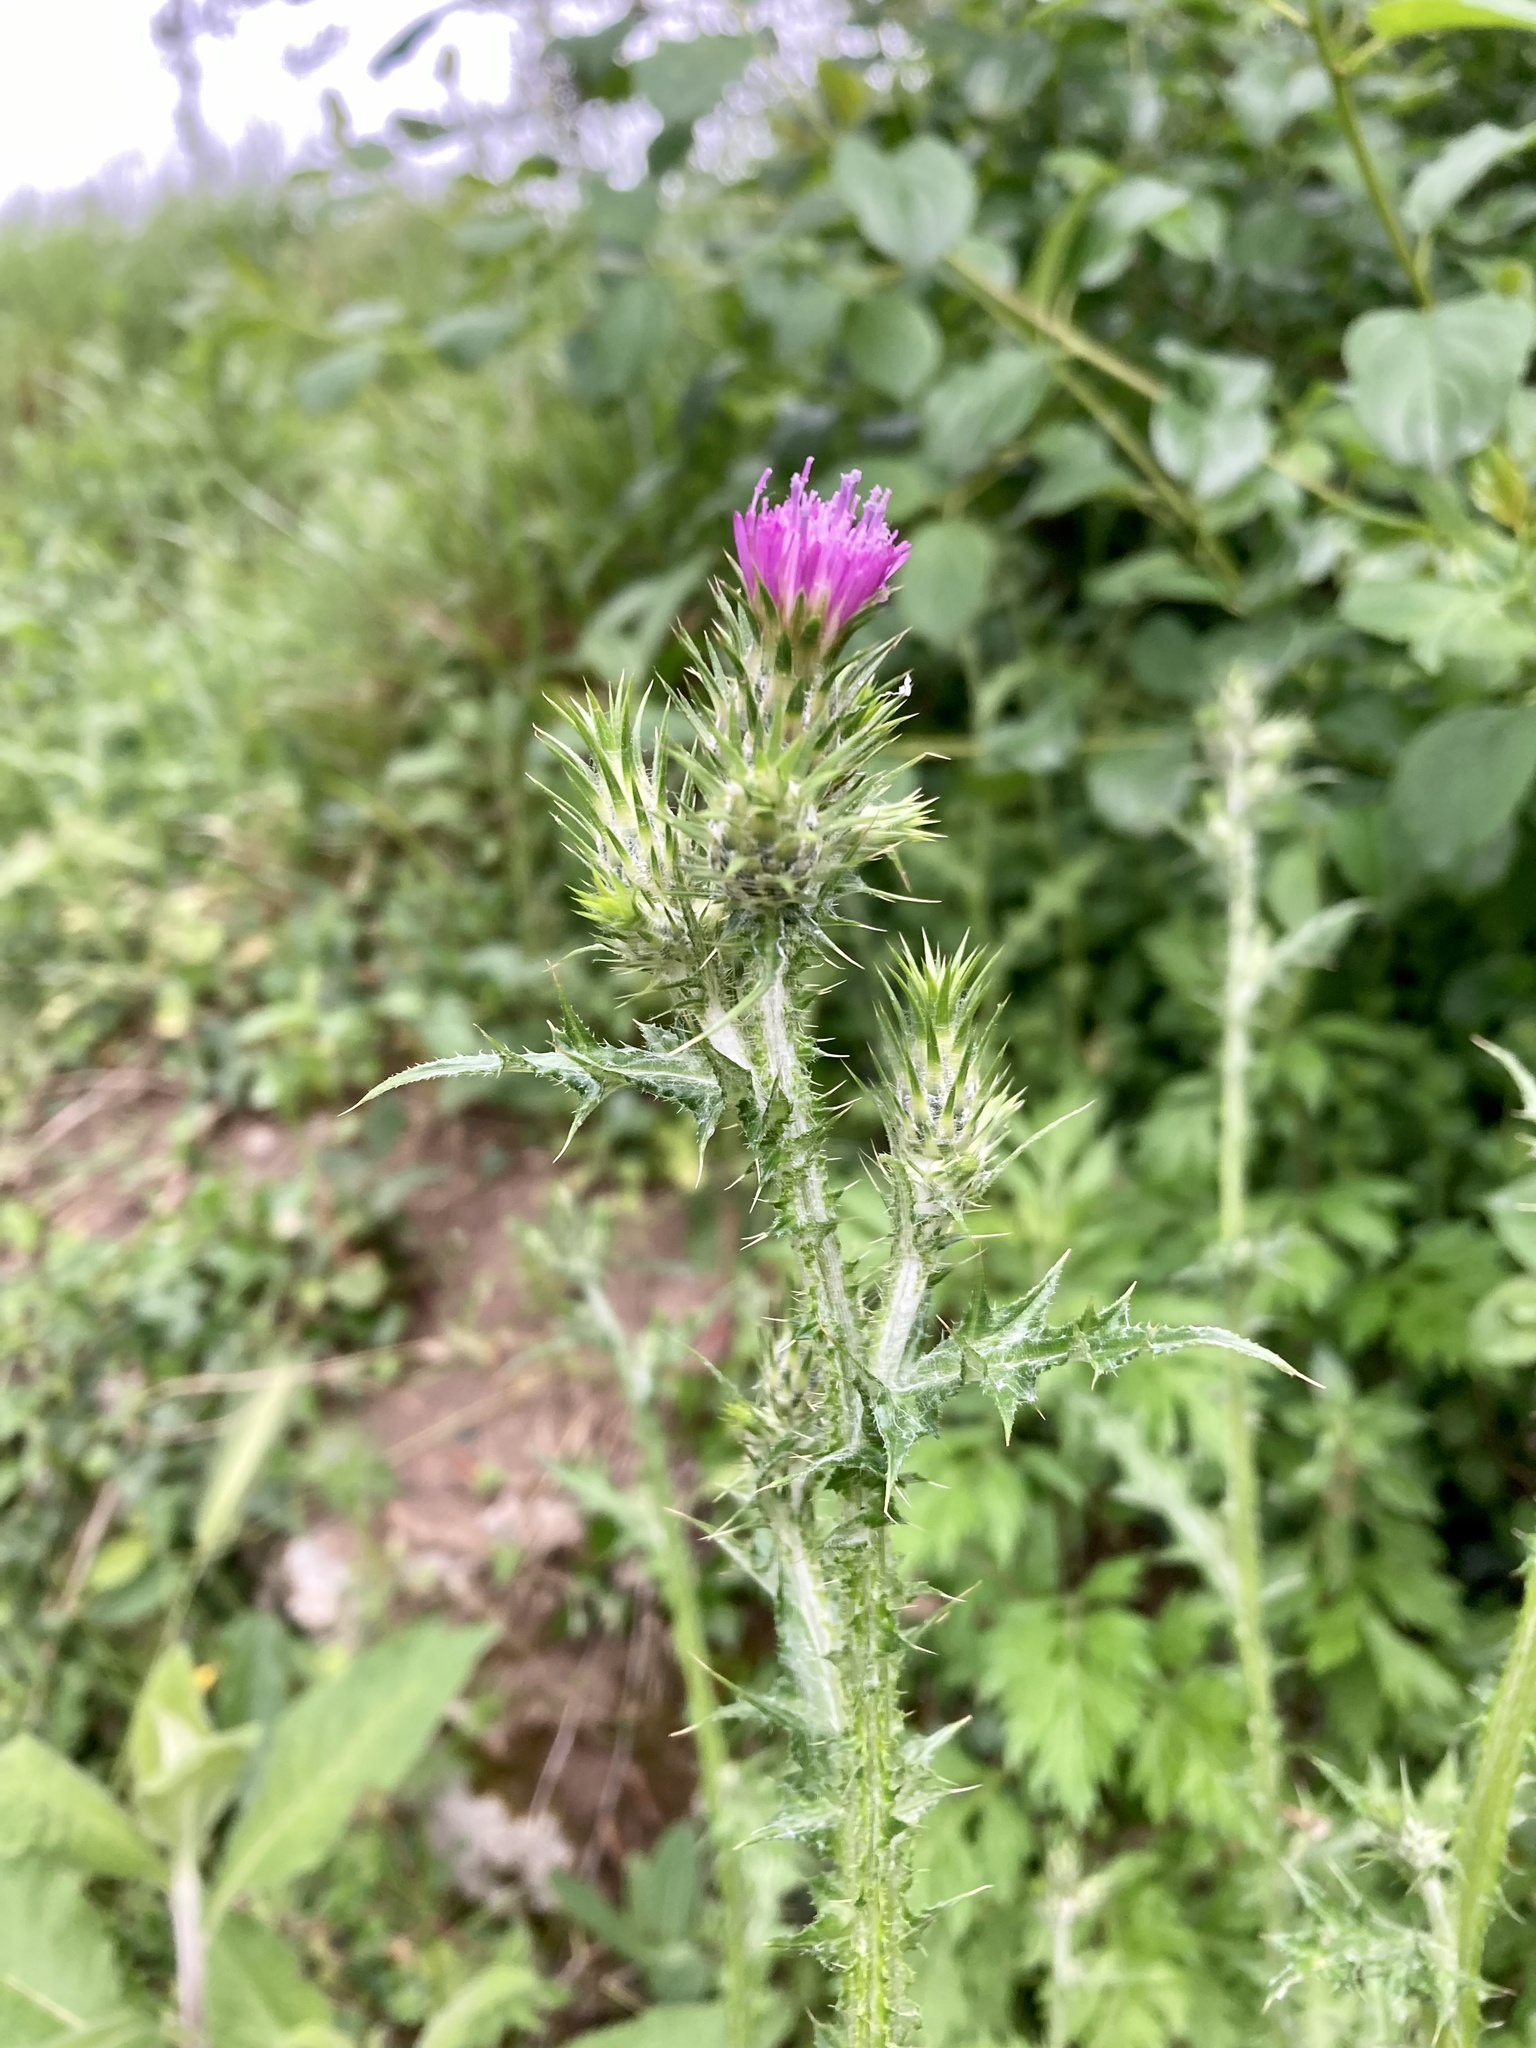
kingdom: Plantae
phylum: Tracheophyta
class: Magnoliopsida
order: Asterales
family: Asteraceae
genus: Carduus
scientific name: Carduus pycnocephalus
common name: Plymouth thistle
